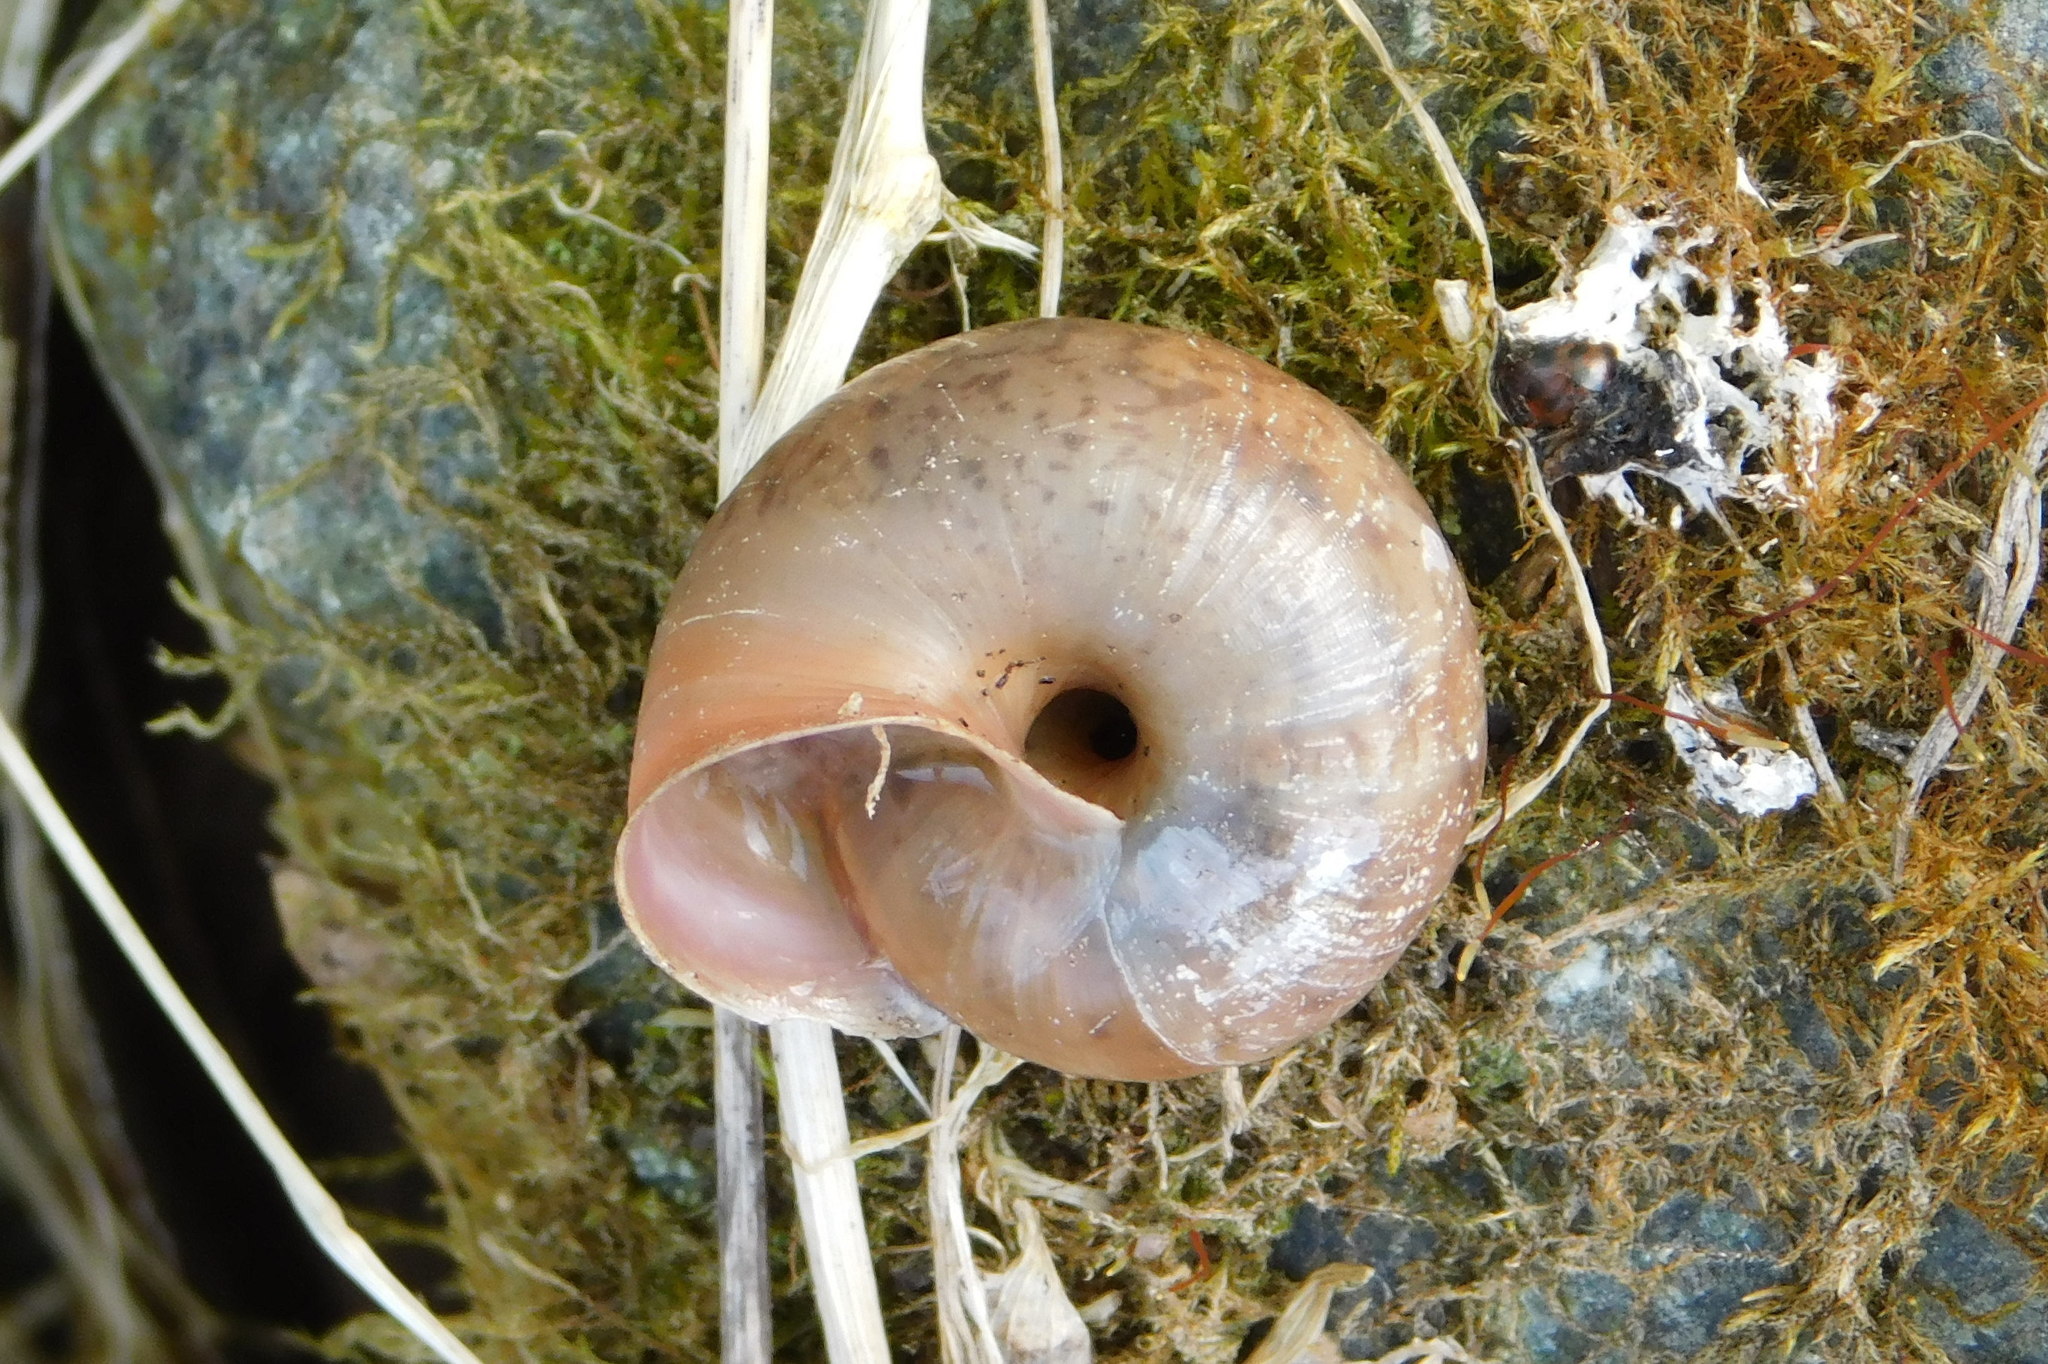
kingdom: Animalia
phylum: Mollusca
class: Gastropoda
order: Stylommatophora
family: Camaenidae
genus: Fruticicola
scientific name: Fruticicola fruticum
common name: Bush snail
